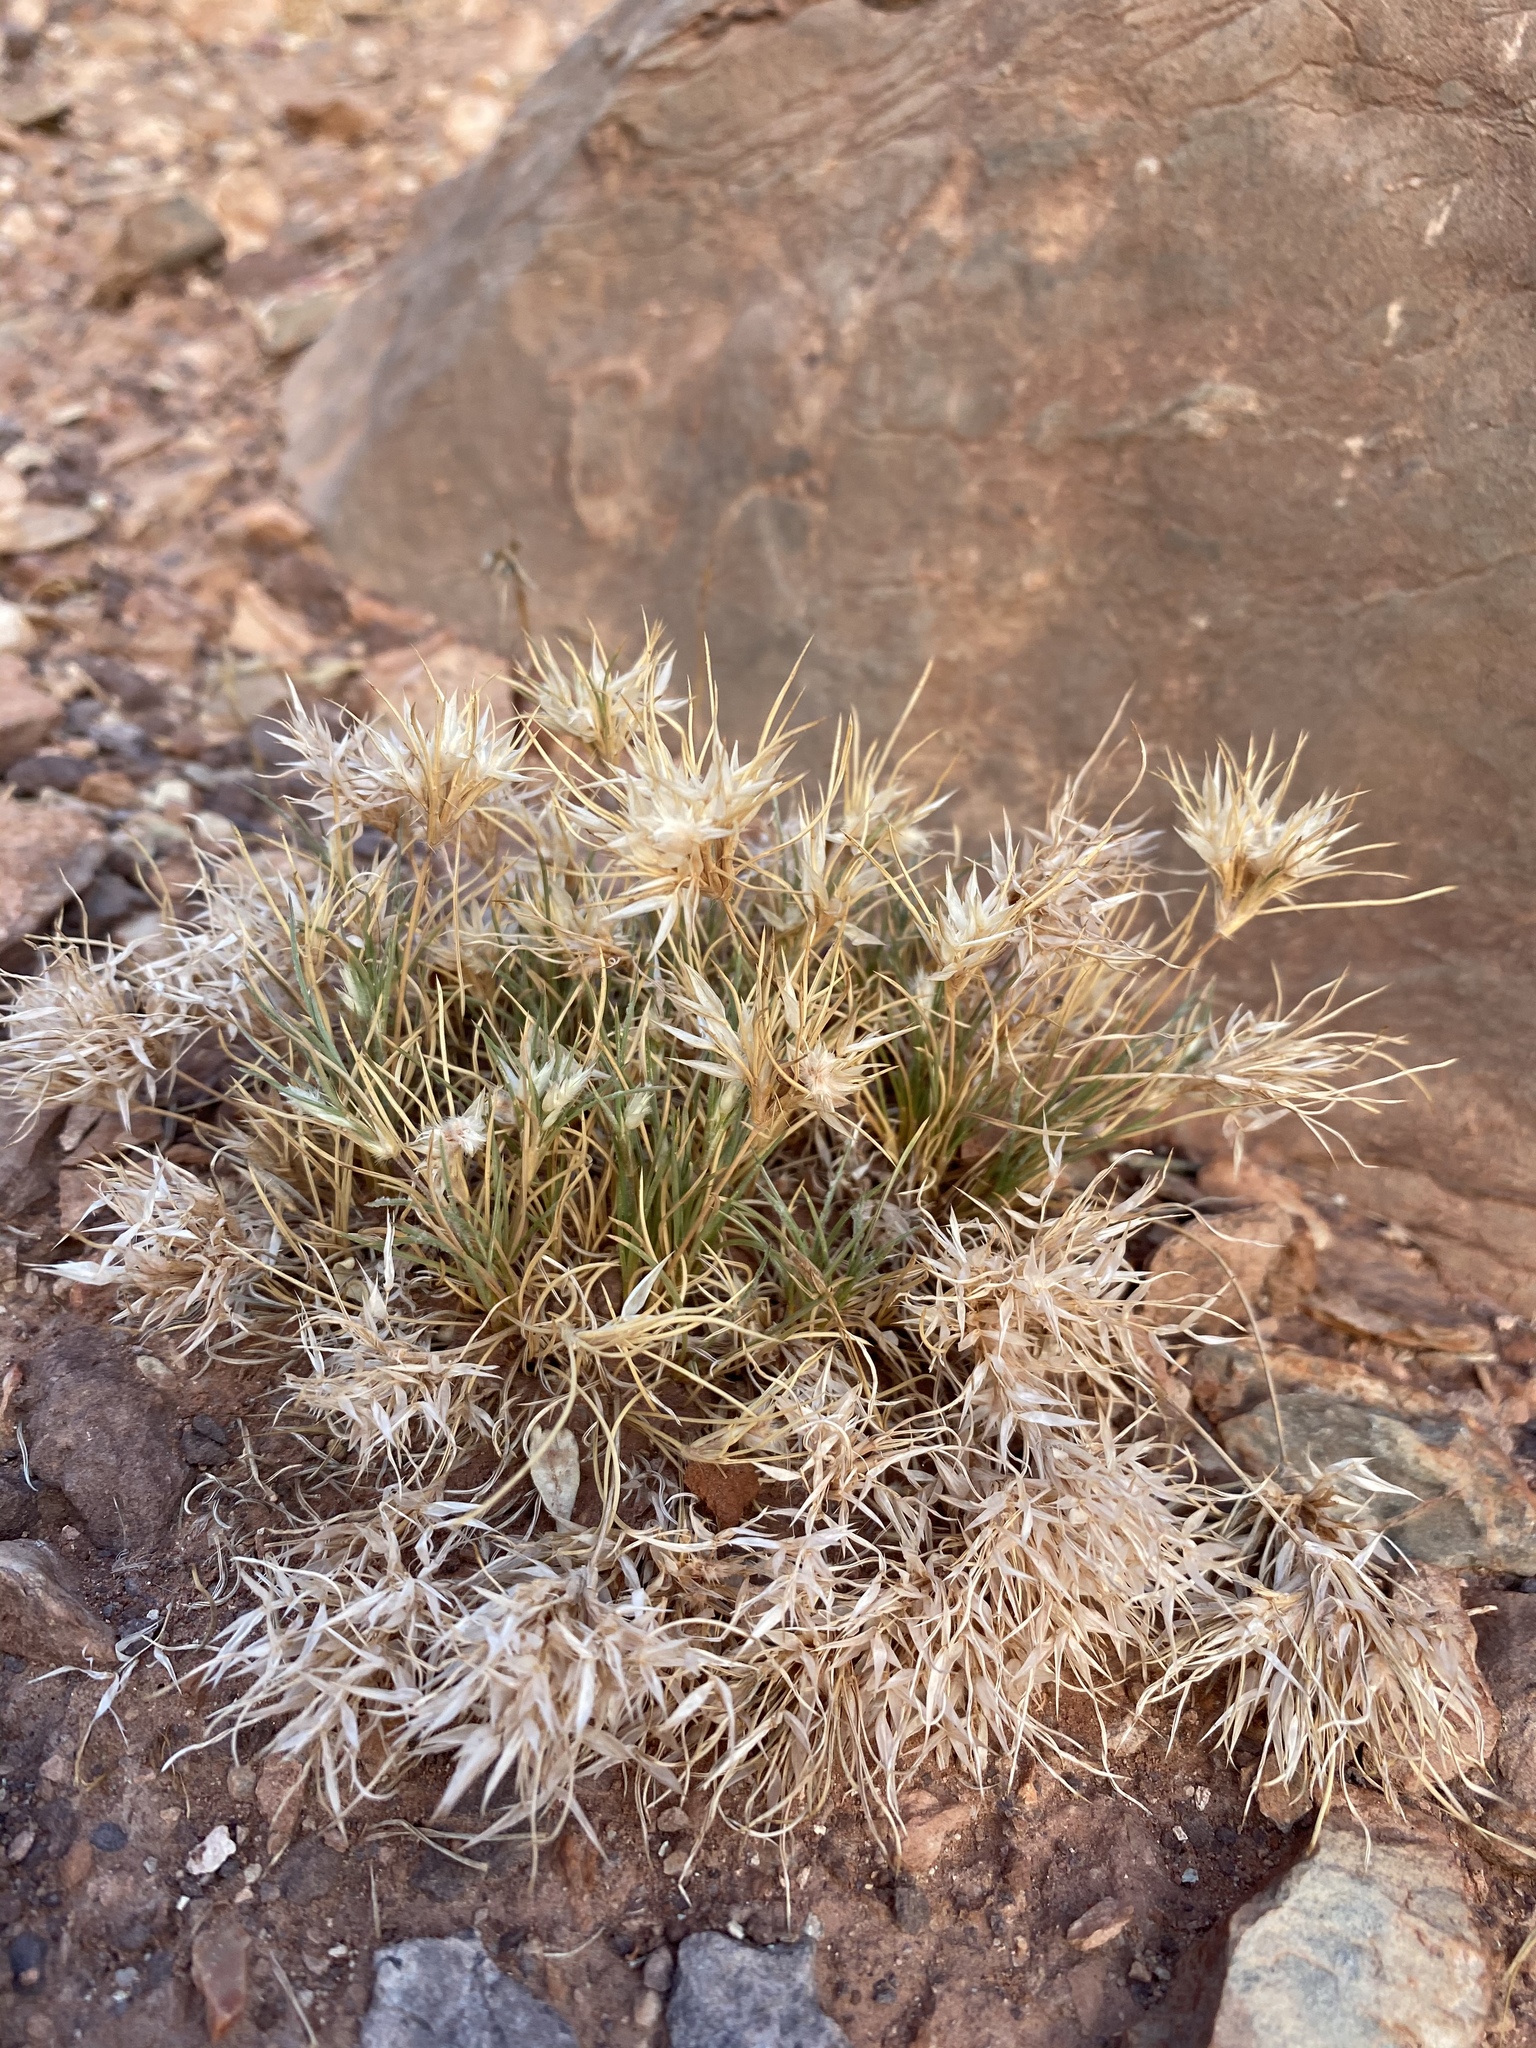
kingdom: Plantae
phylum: Tracheophyta
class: Liliopsida
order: Poales
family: Poaceae
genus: Dasyochloa
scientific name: Dasyochloa pulchella
